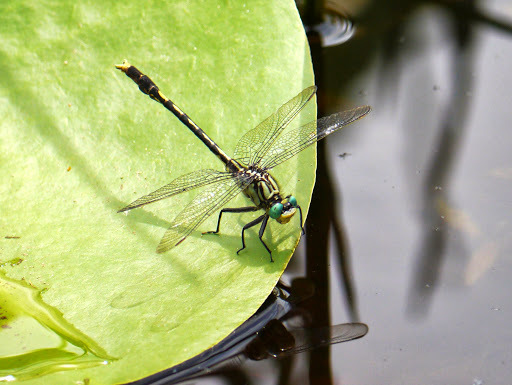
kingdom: Animalia
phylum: Arthropoda
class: Insecta
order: Odonata
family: Gomphidae
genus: Arigomphus
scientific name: Arigomphus villosipes
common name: Unicorn clubtail
